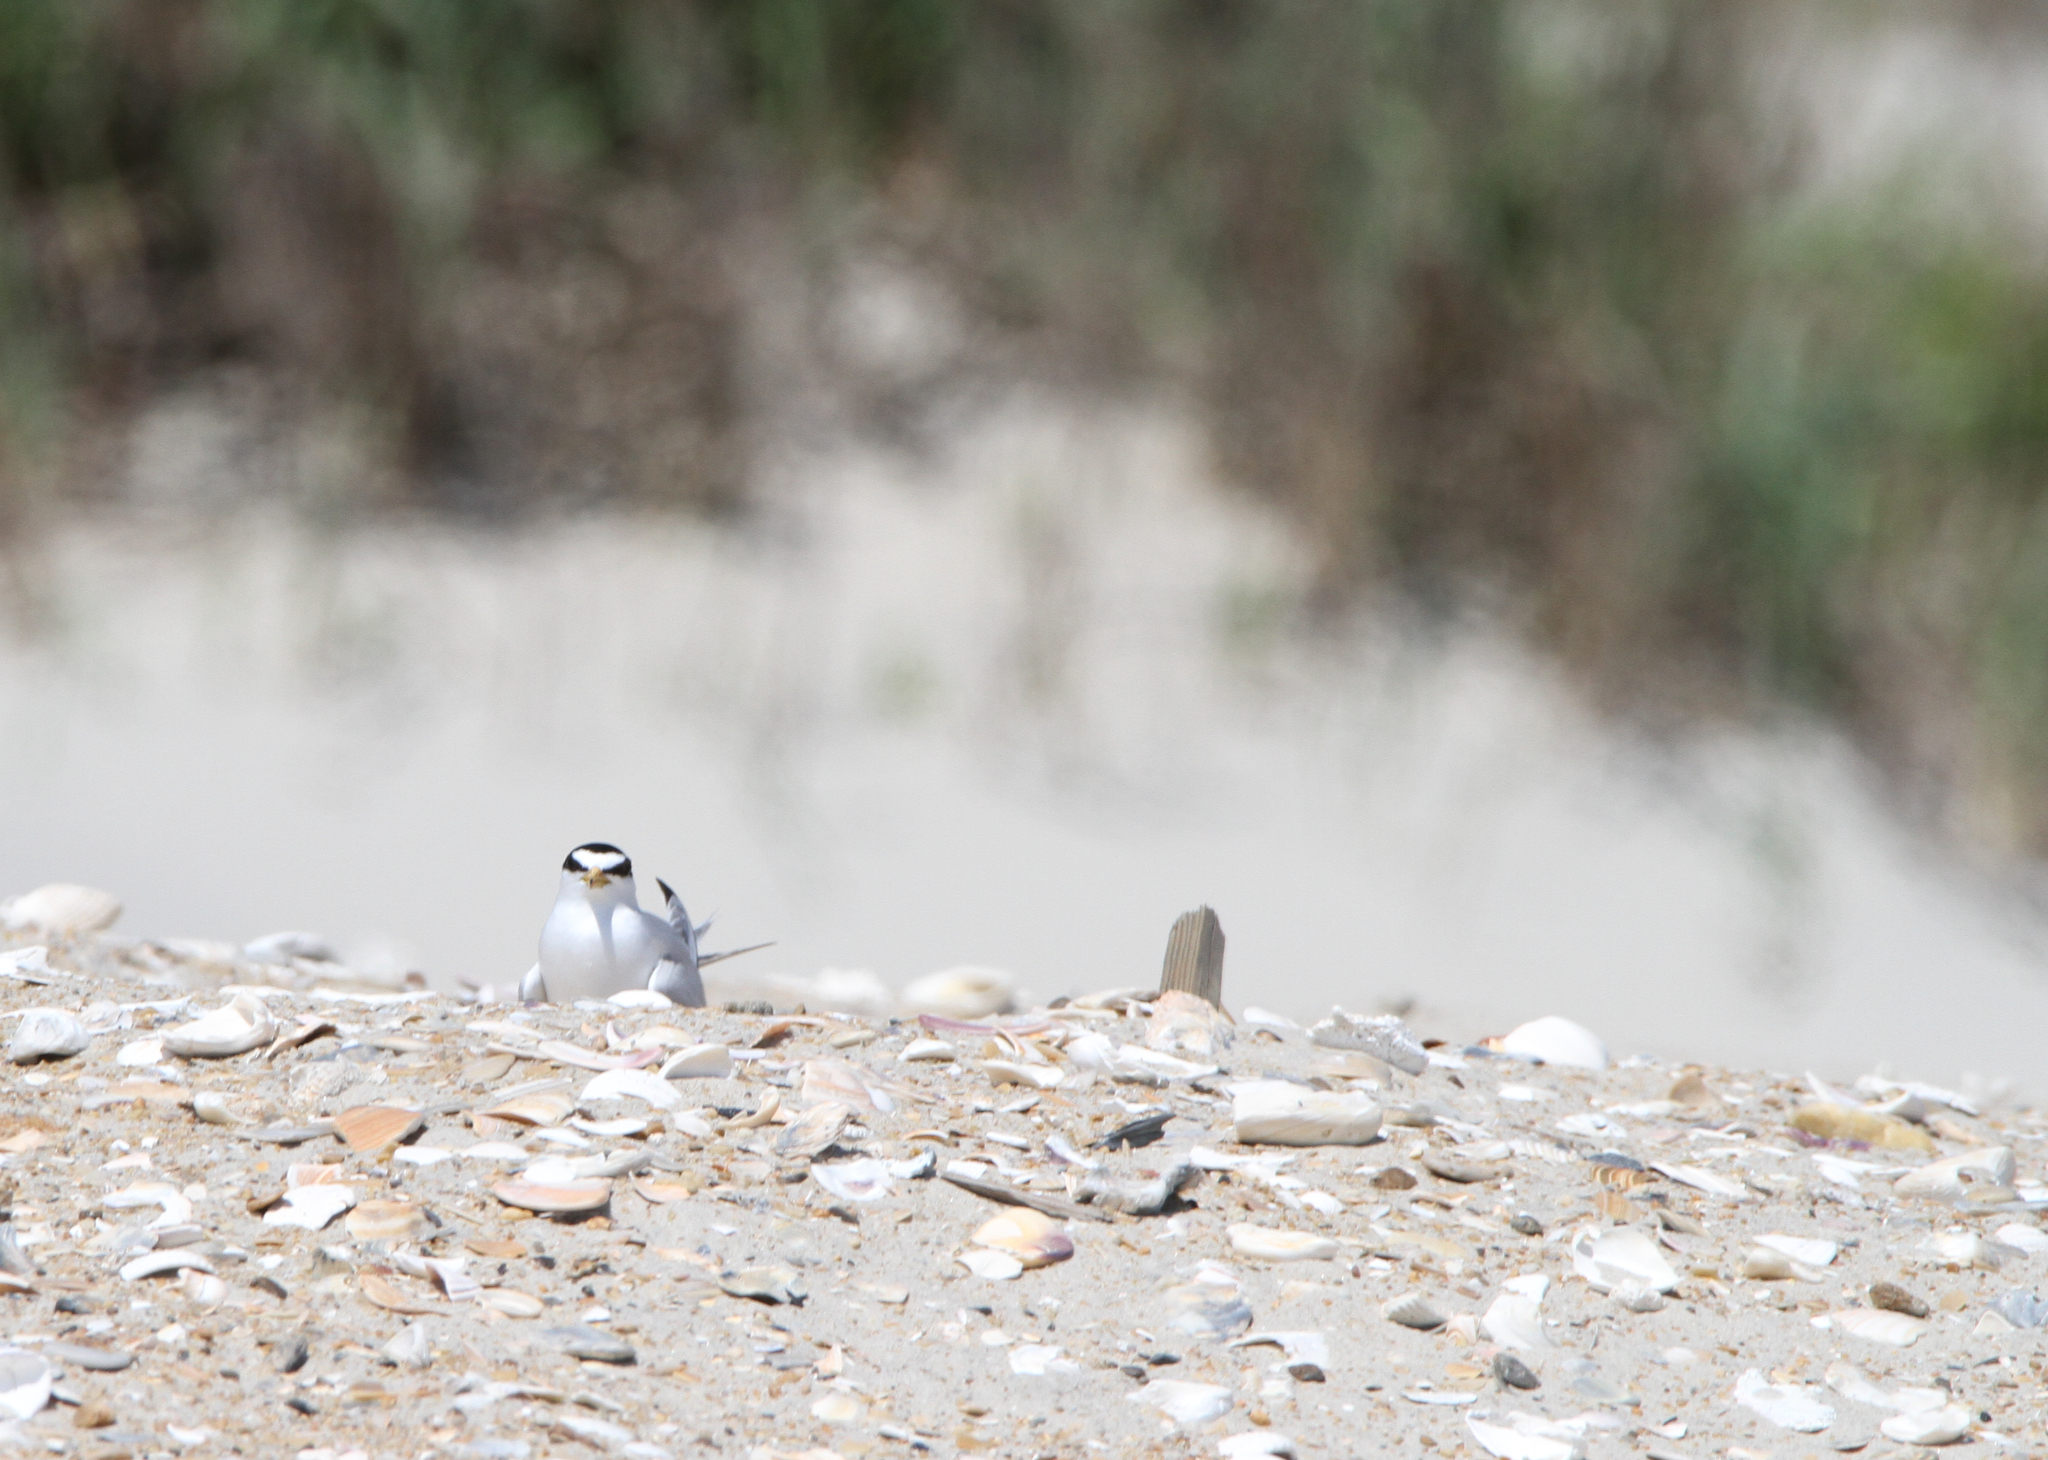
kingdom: Animalia
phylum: Chordata
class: Aves
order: Charadriiformes
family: Laridae
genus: Sternula
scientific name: Sternula antillarum
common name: Least tern
